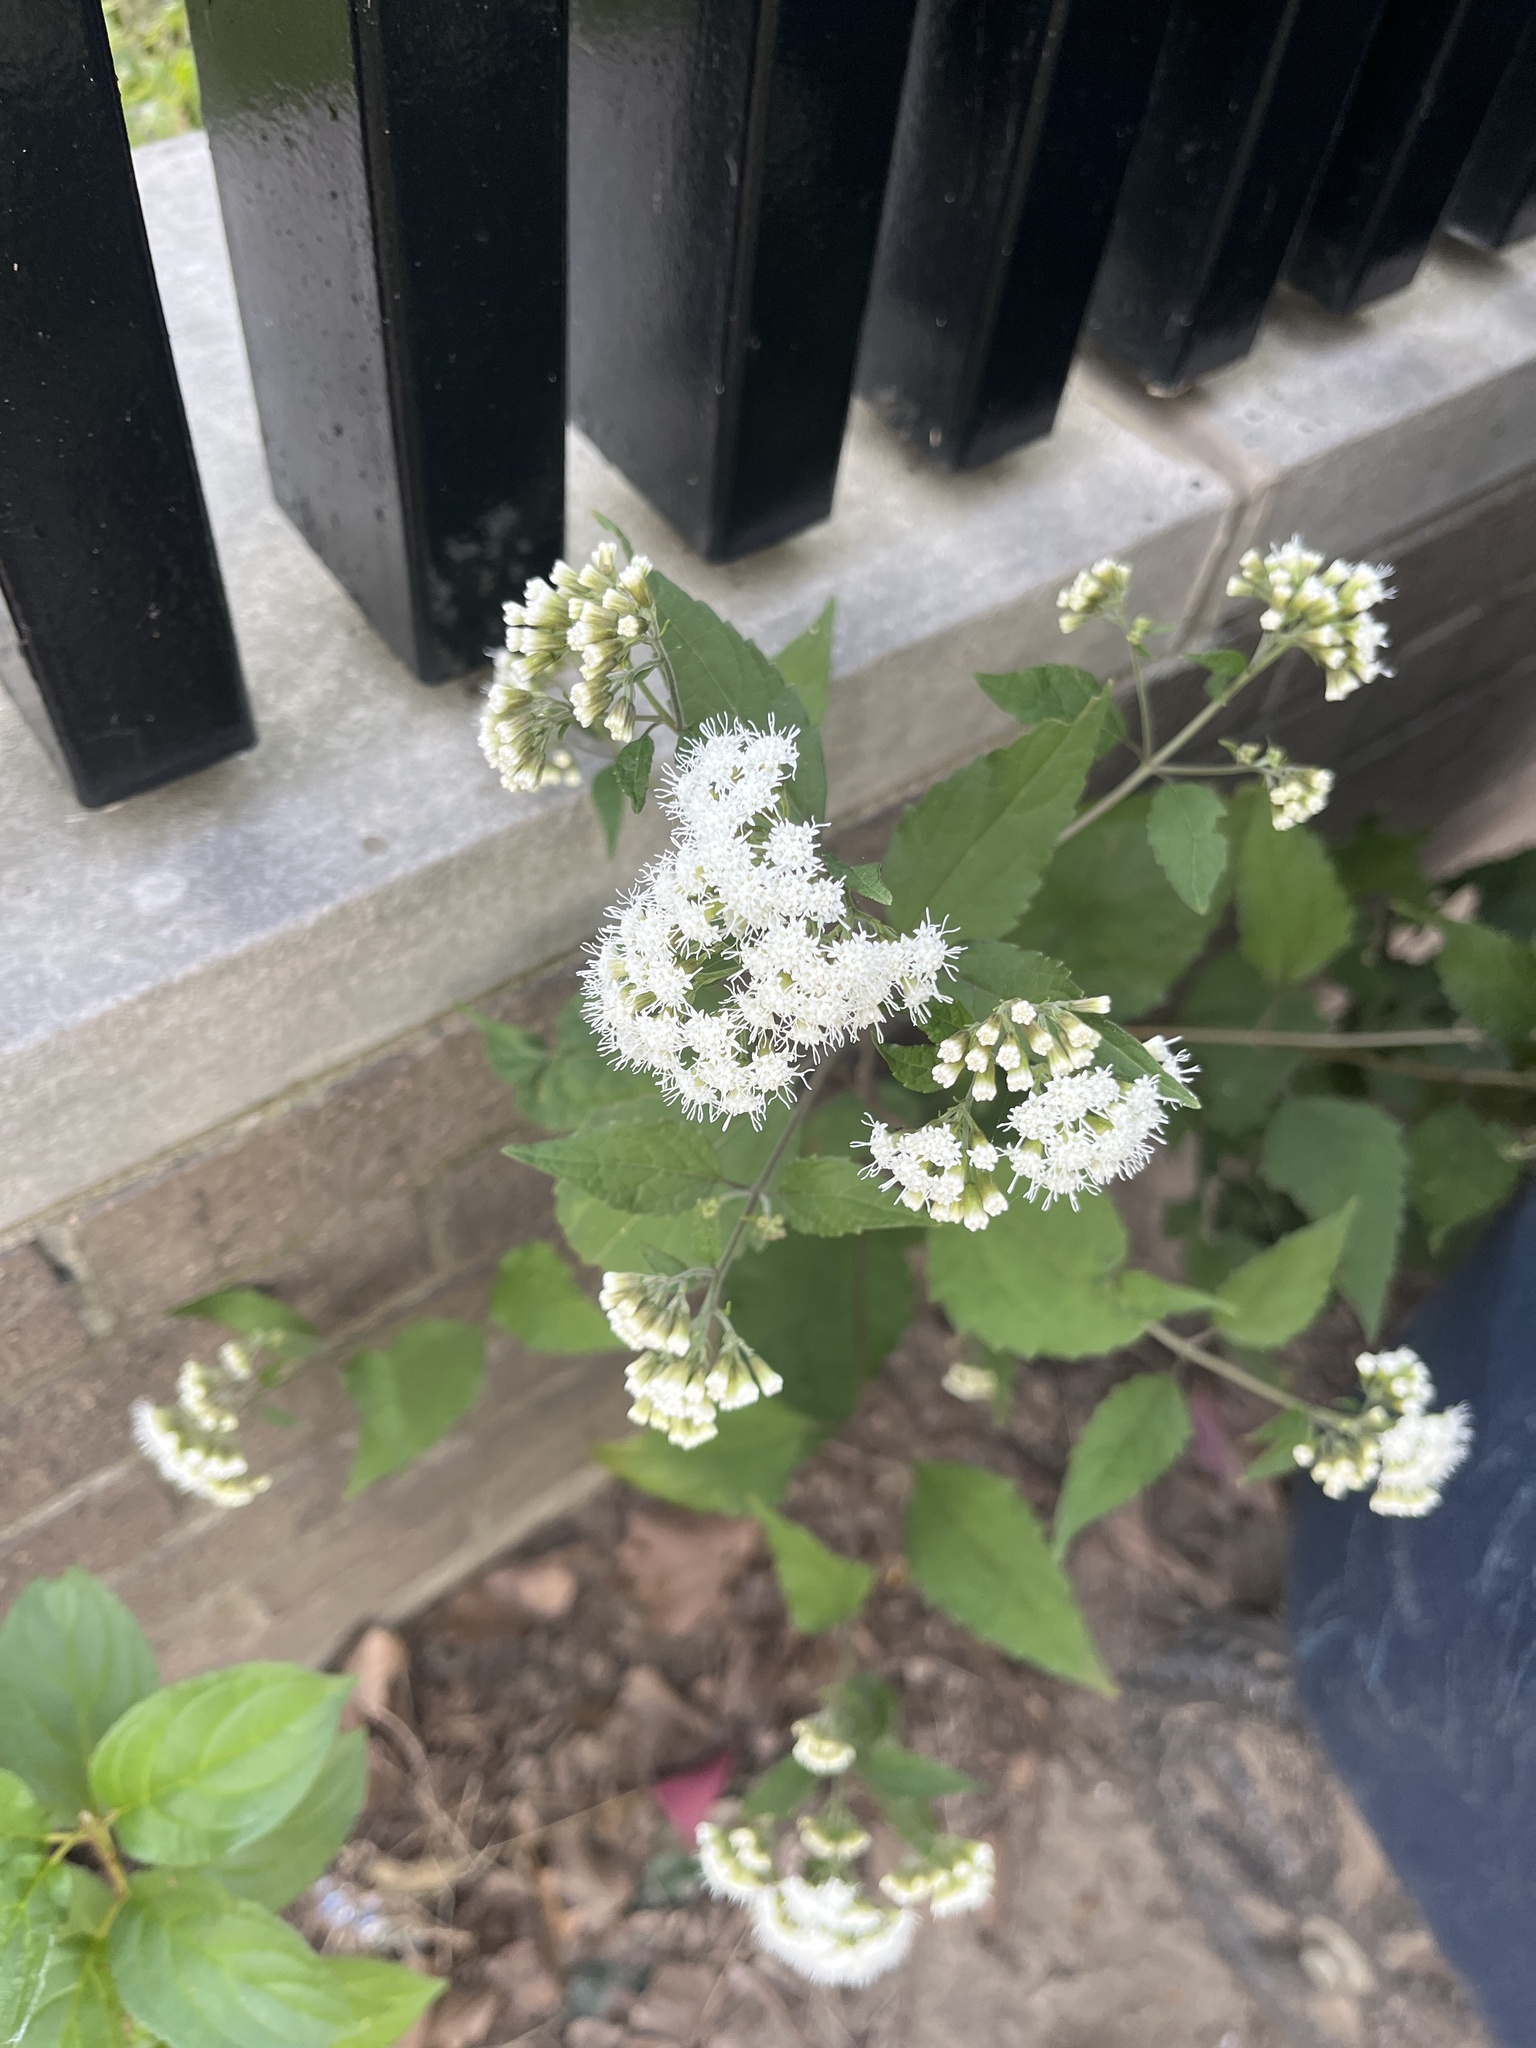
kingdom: Plantae
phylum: Tracheophyta
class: Magnoliopsida
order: Asterales
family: Asteraceae
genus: Ageratina
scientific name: Ageratina altissima
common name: White snakeroot
